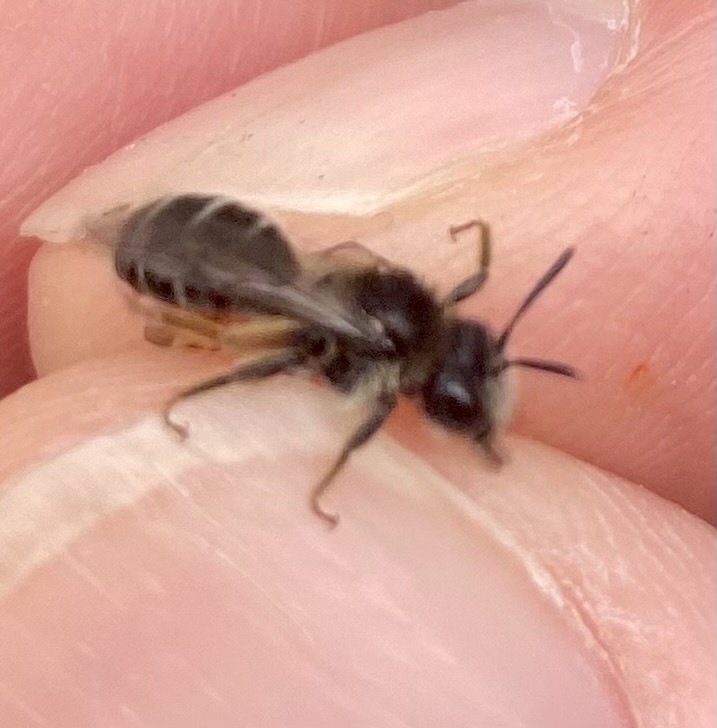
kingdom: Animalia
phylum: Arthropoda
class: Insecta
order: Hymenoptera
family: Andrenidae
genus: Andrena
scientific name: Andrena wilkella
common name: Wilke's mining bee
